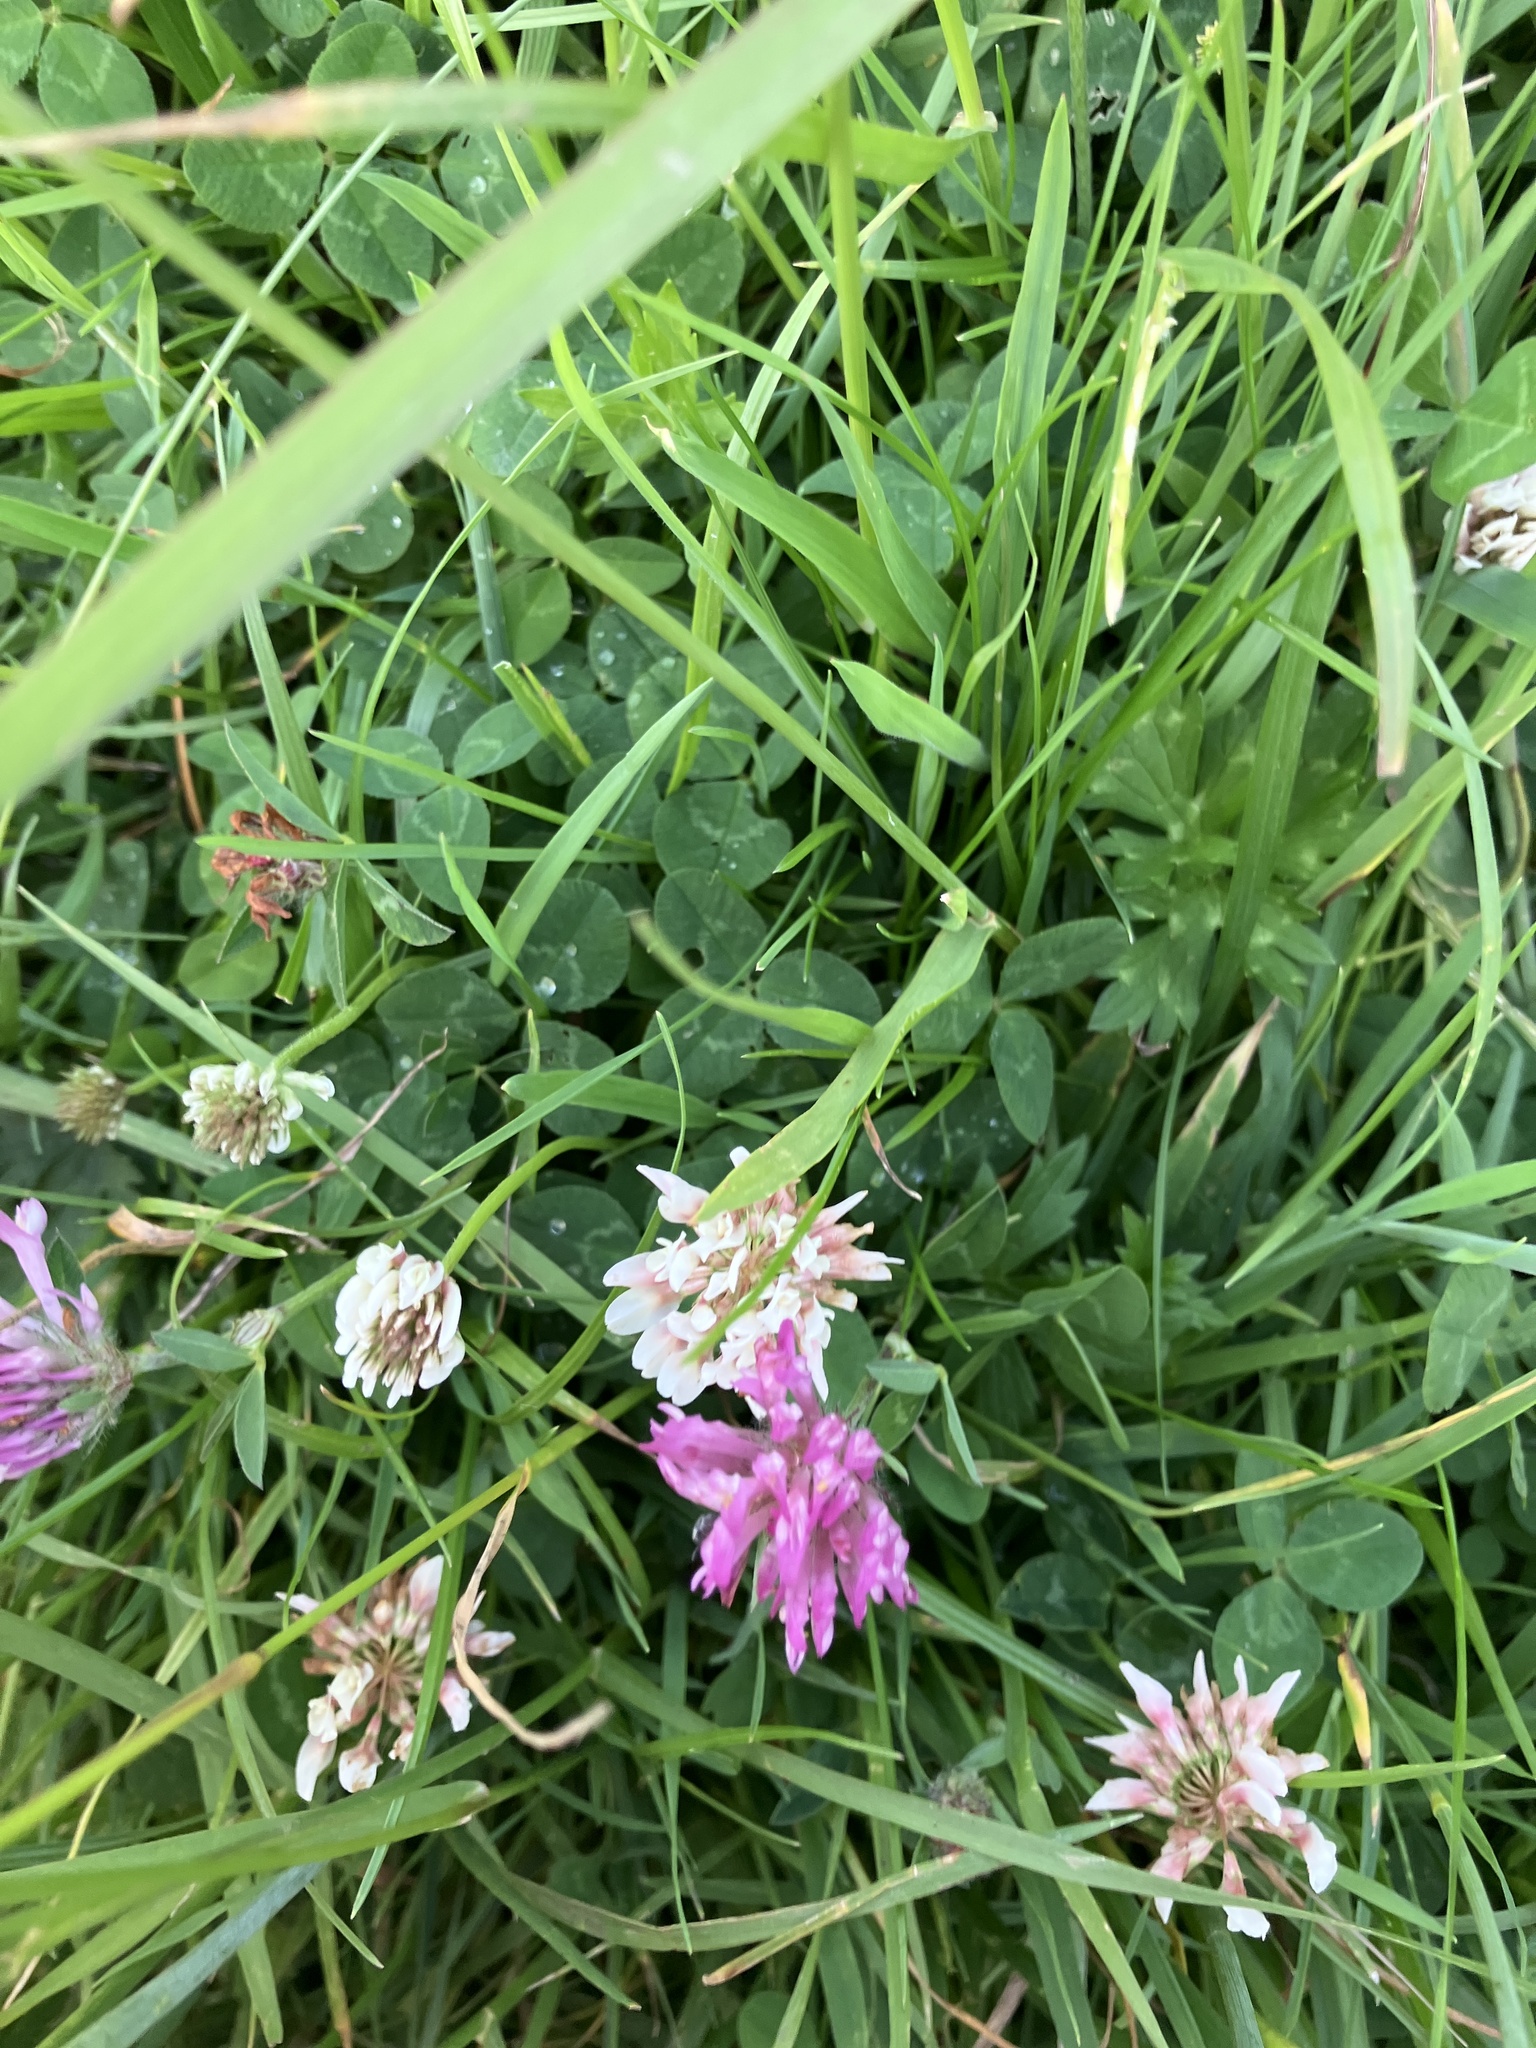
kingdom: Plantae
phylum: Tracheophyta
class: Magnoliopsida
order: Fabales
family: Fabaceae
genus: Trifolium
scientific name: Trifolium pratense
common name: Red clover
